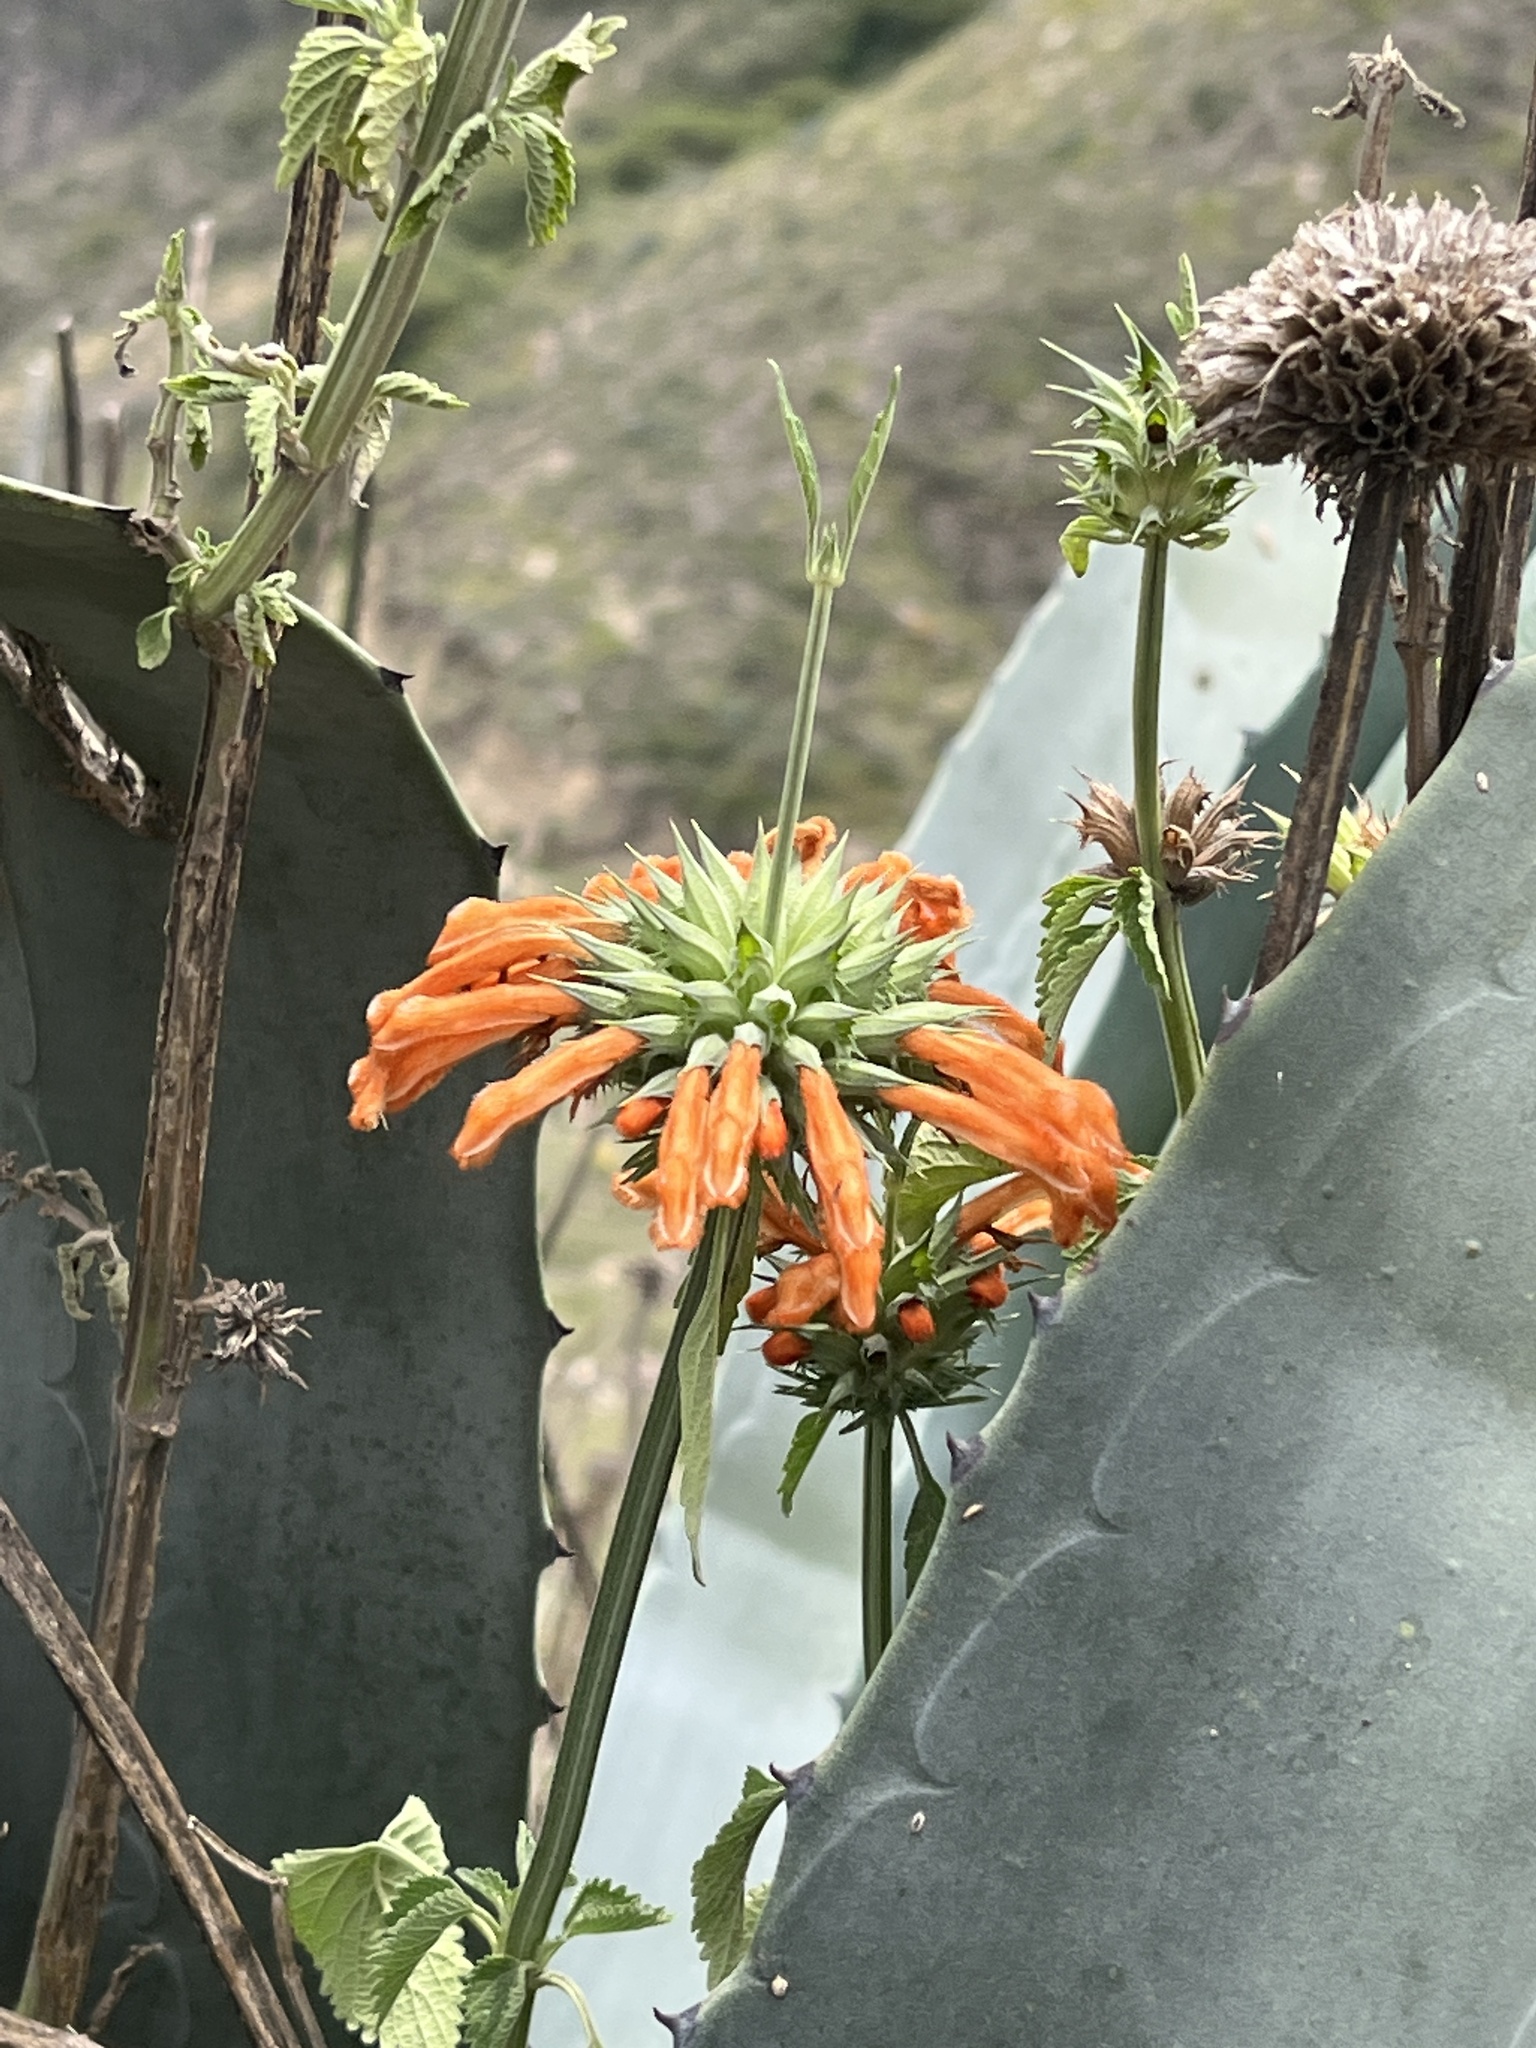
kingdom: Plantae
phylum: Tracheophyta
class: Magnoliopsida
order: Lamiales
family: Lamiaceae
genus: Leonotis
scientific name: Leonotis nepetifolia
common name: Christmas candlestick
